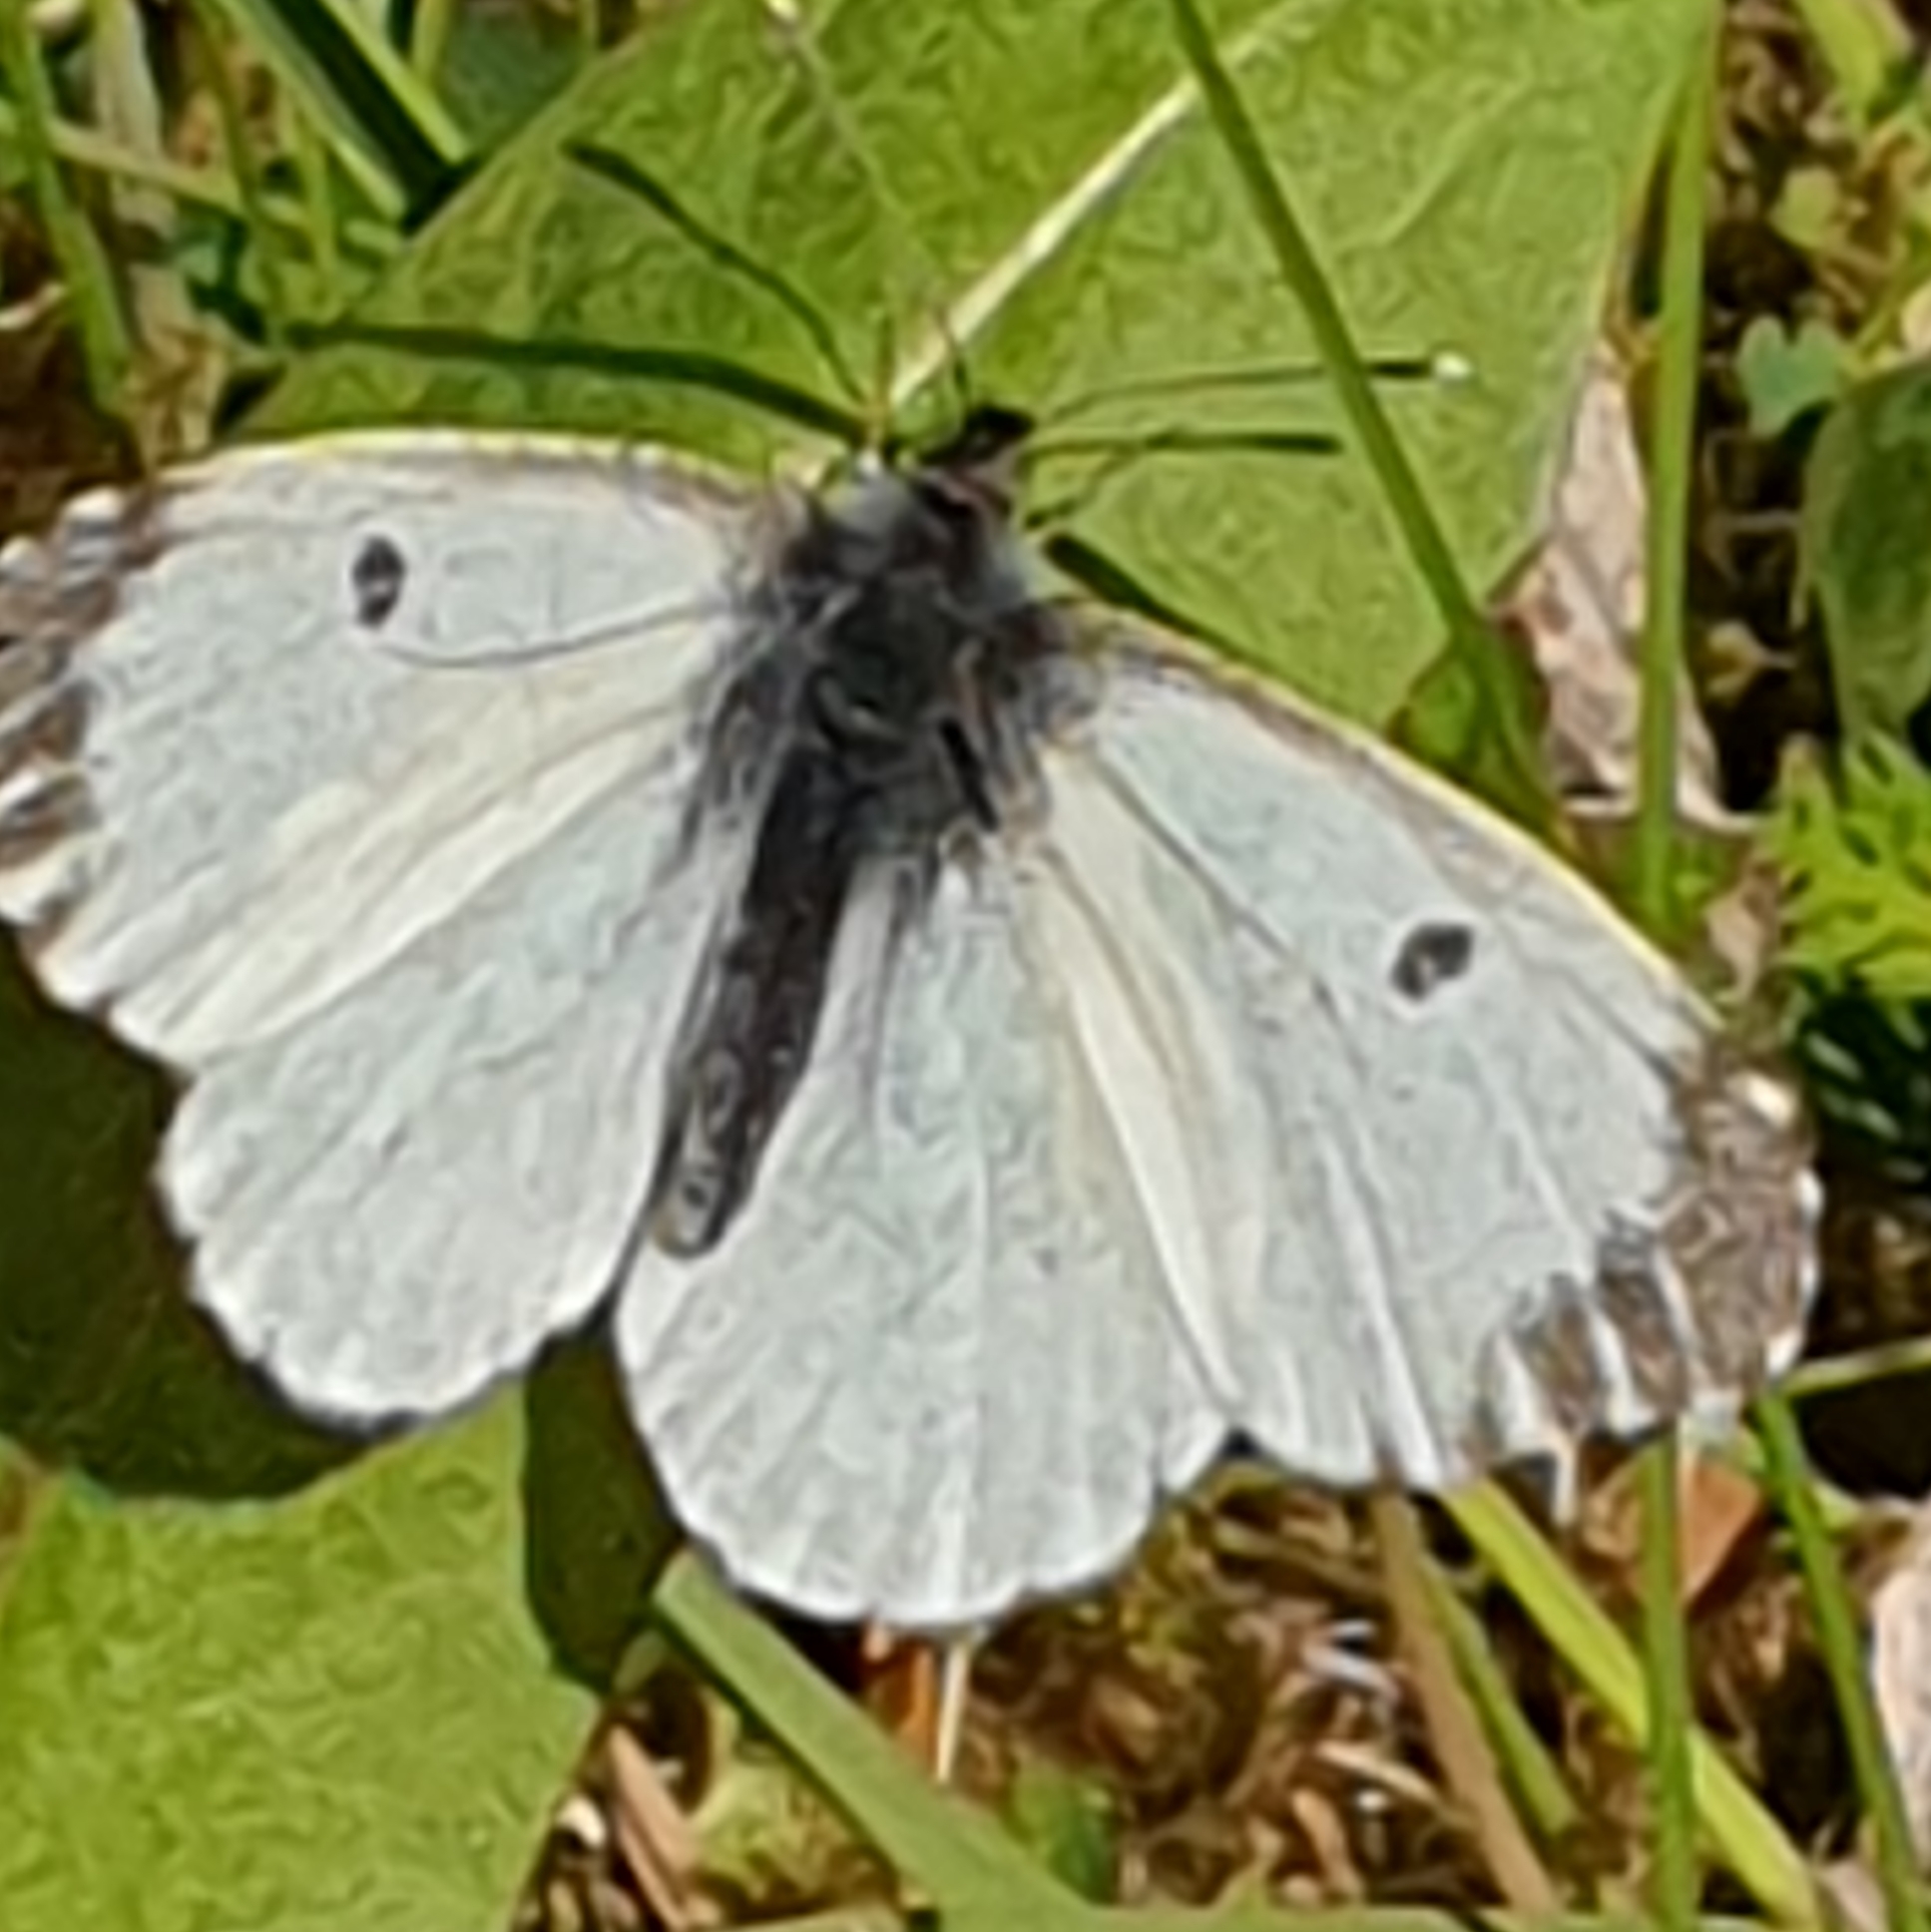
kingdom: Animalia
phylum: Arthropoda
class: Insecta
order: Lepidoptera
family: Pieridae
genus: Anthocharis
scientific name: Anthocharis cardamines
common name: Orange-tip
